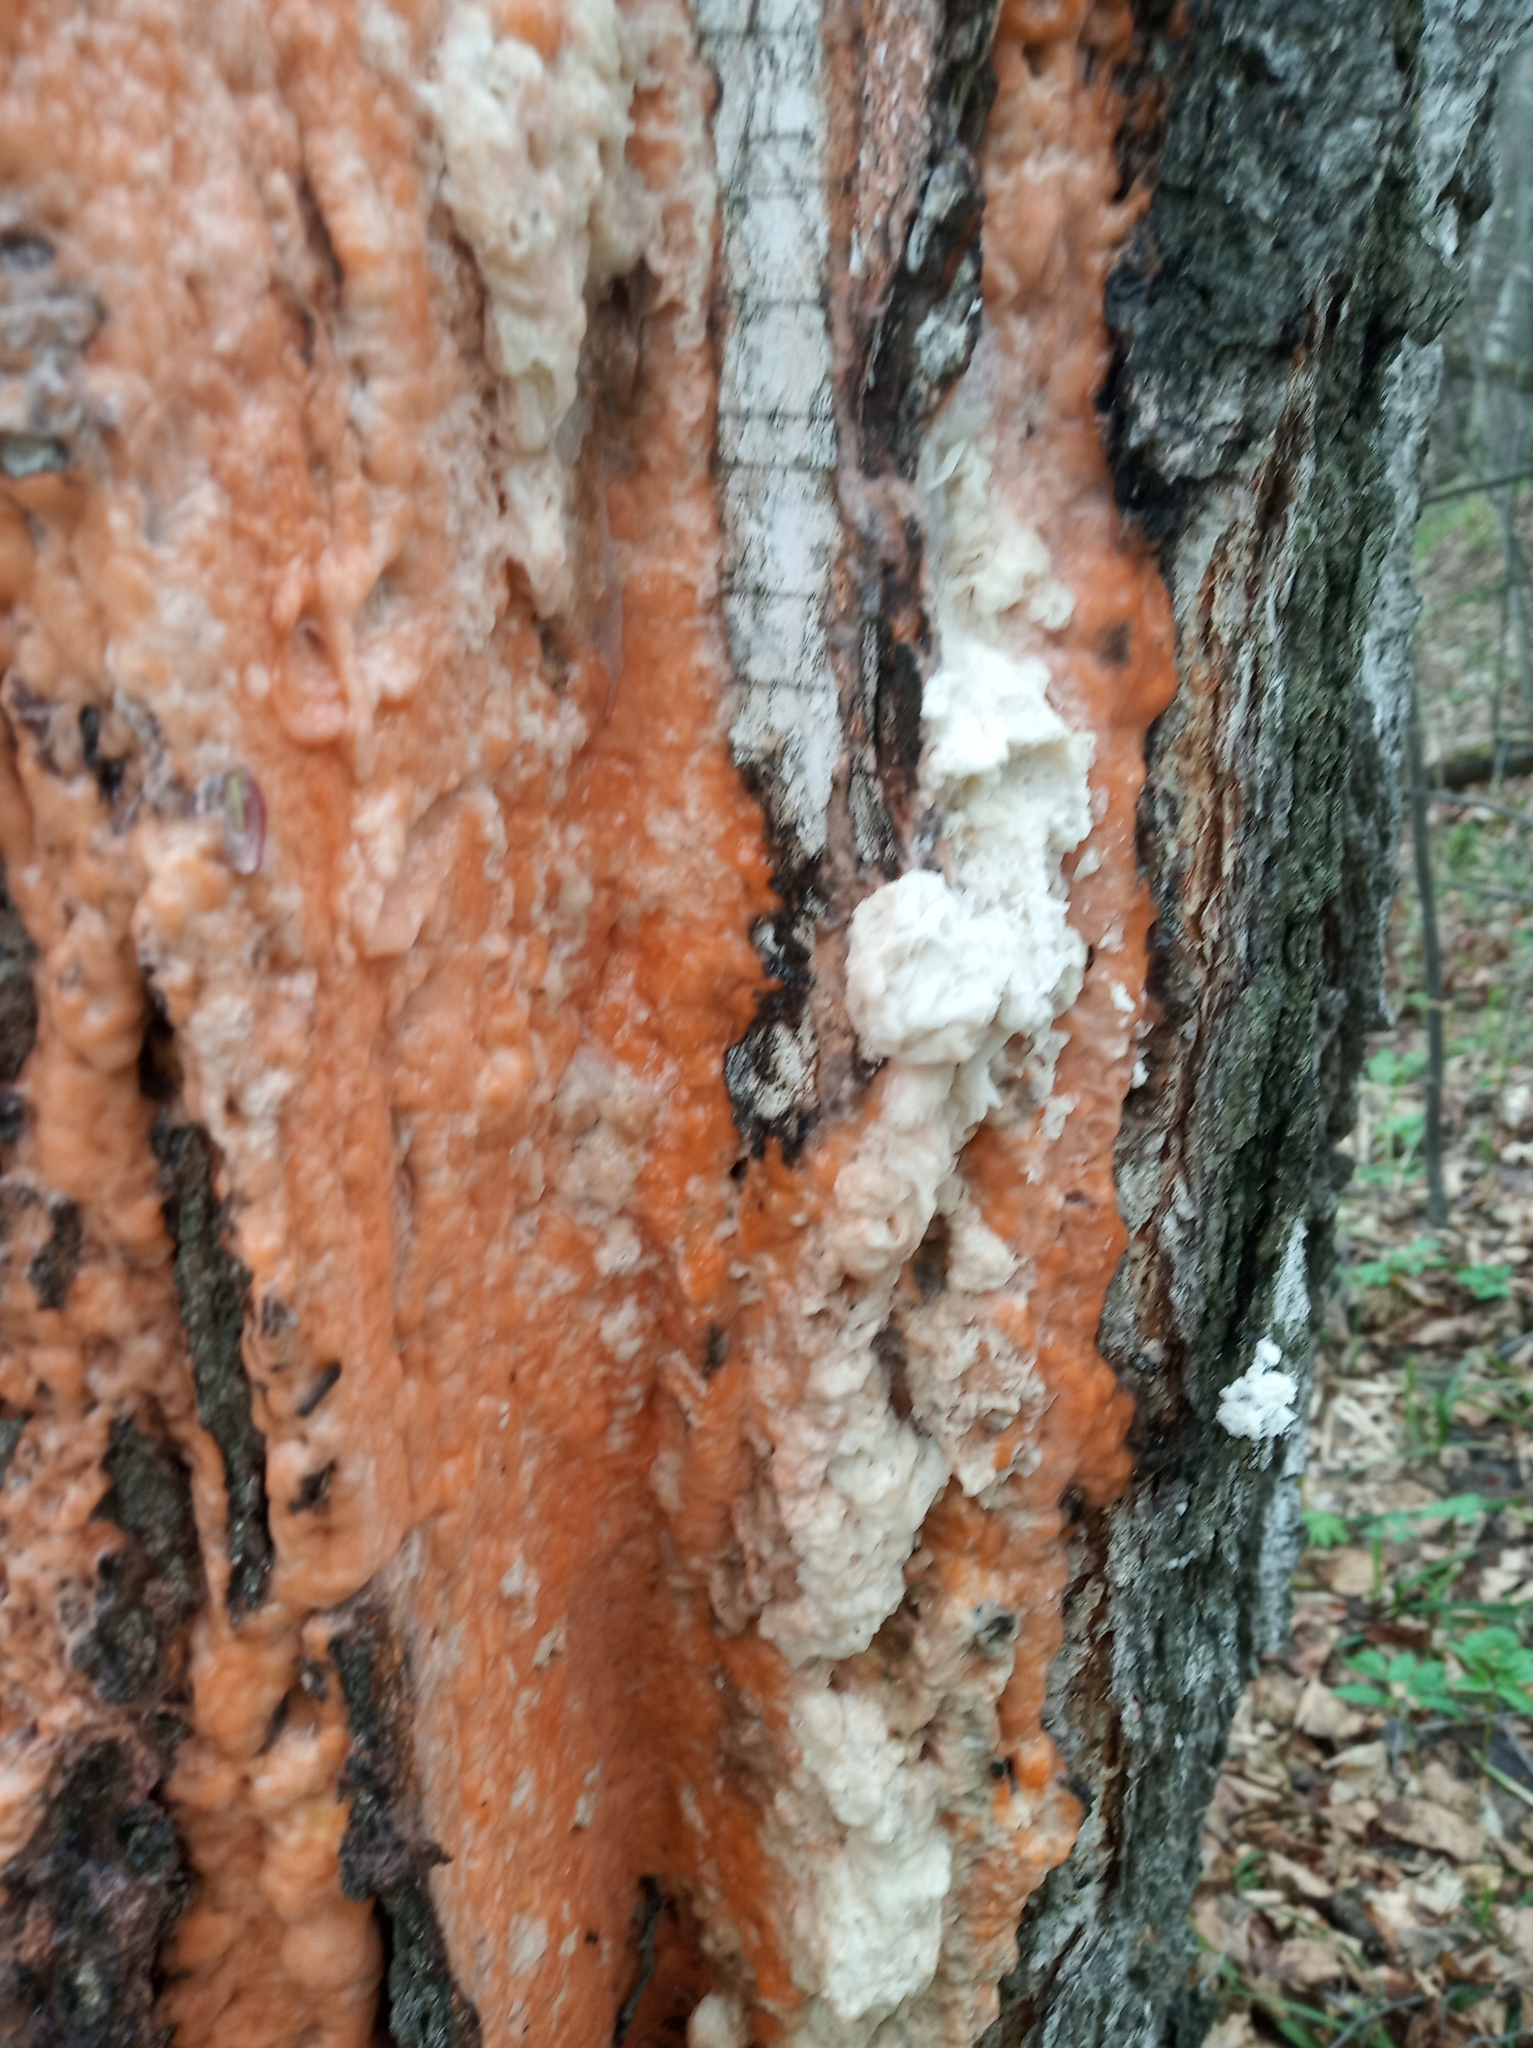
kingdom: Plantae
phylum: Tracheophyta
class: Magnoliopsida
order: Fagales
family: Betulaceae
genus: Betula
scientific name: Betula pendula
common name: Silver birch
